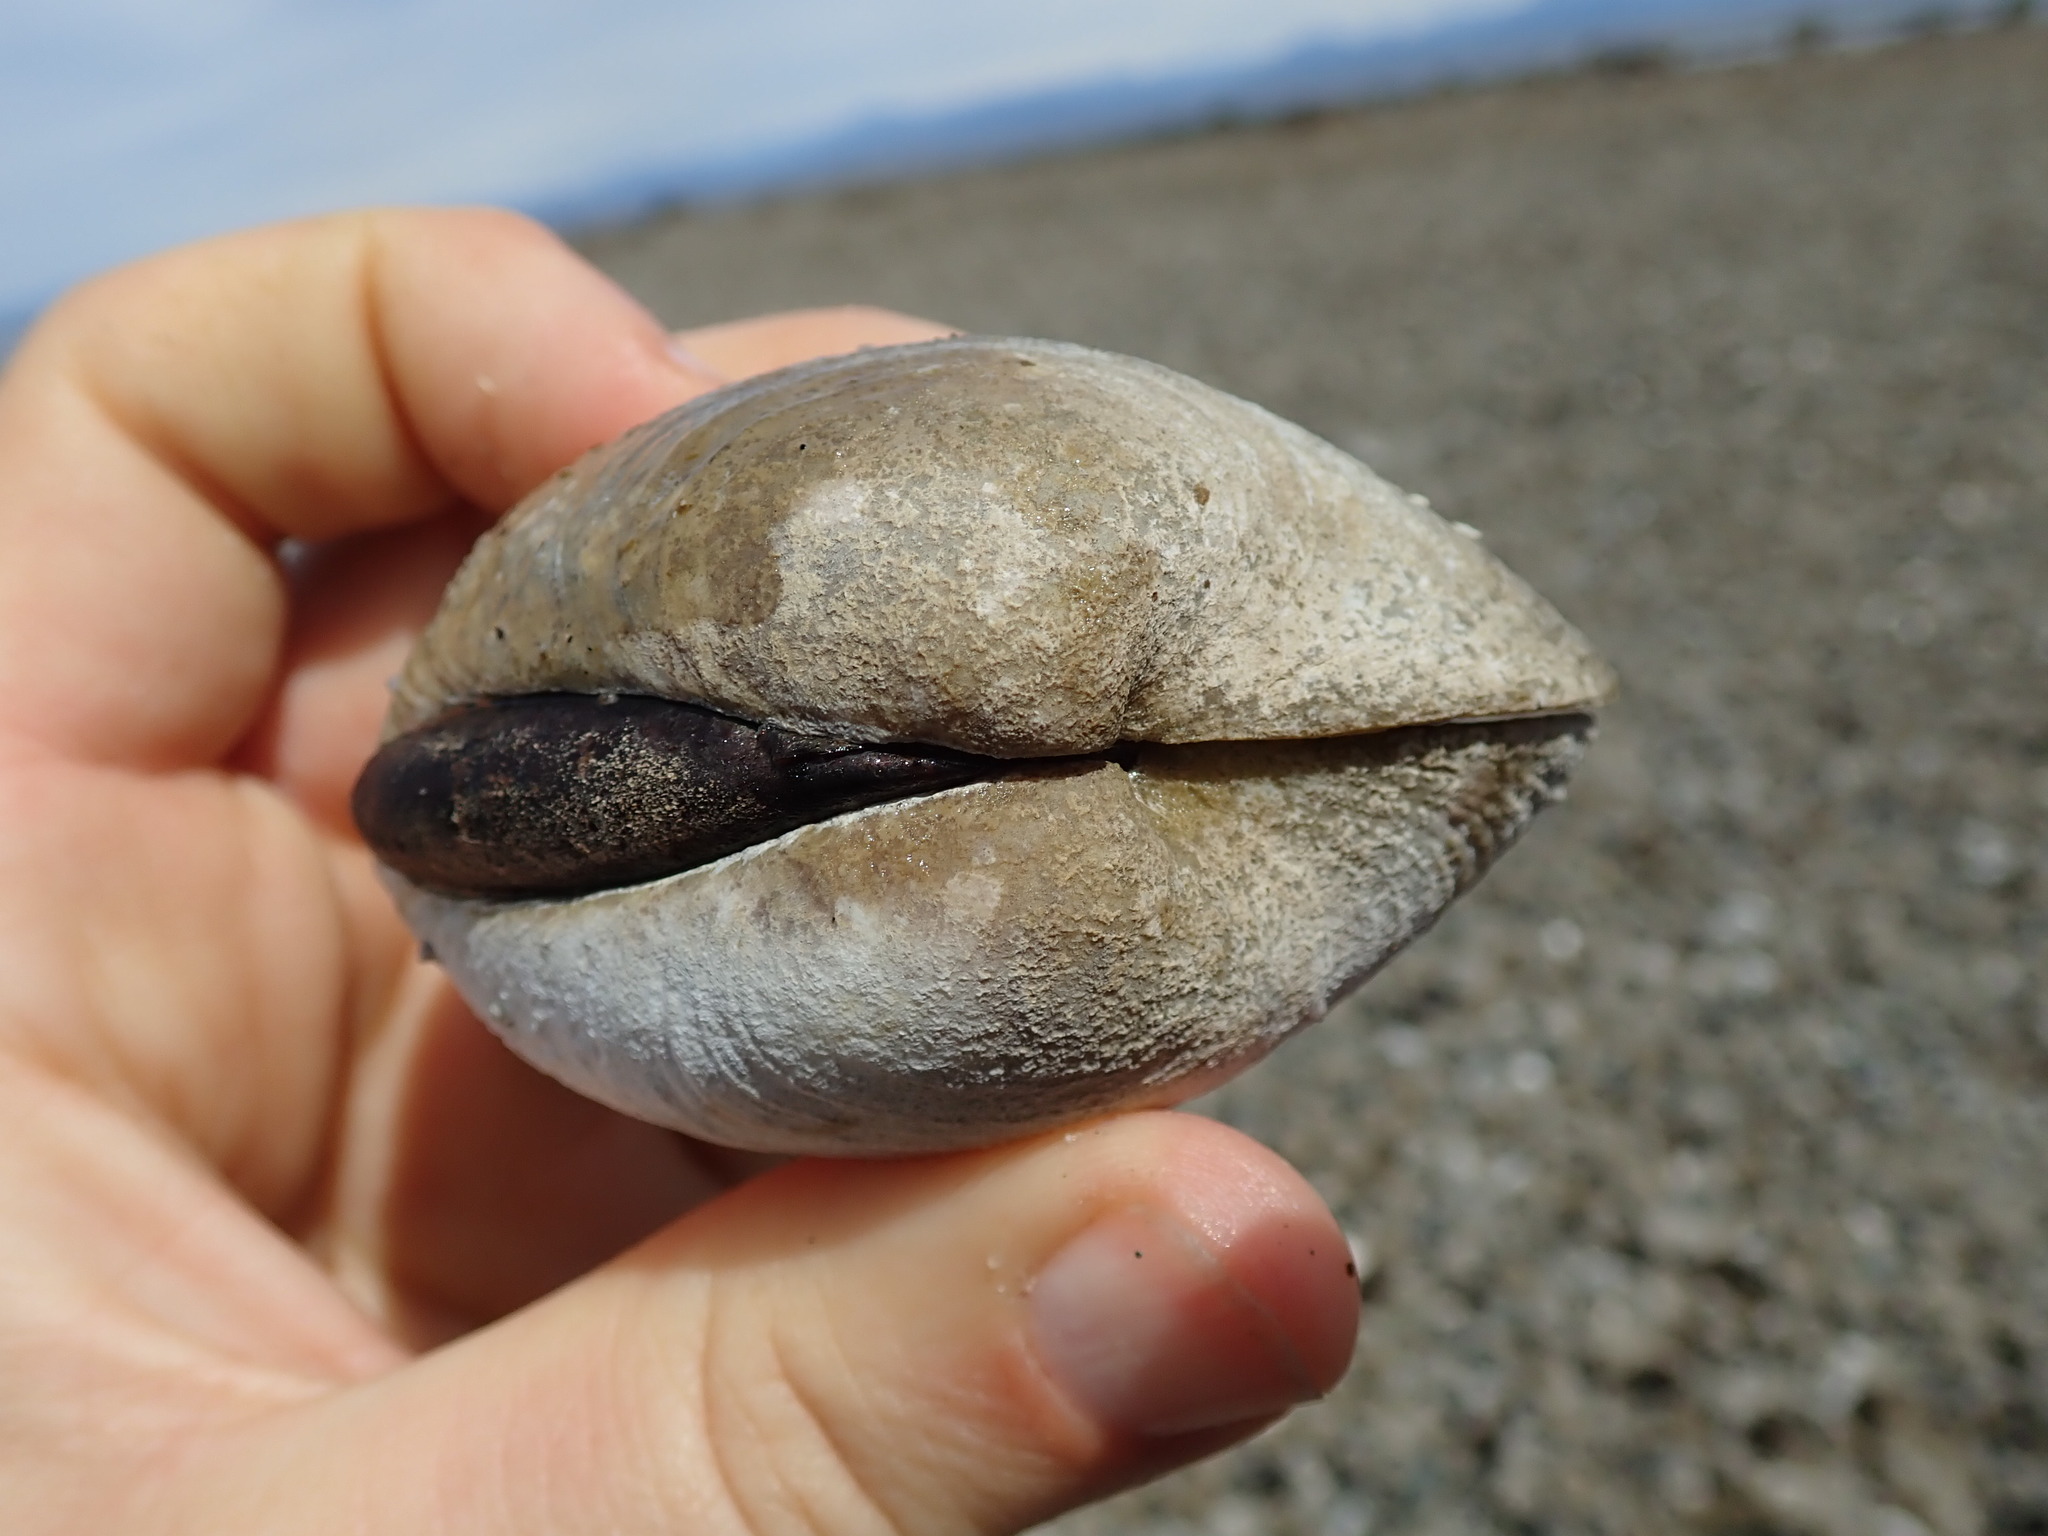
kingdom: Animalia
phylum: Mollusca
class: Bivalvia
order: Venerida
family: Veneridae
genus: Saxidomus
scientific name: Saxidomus gigantea
